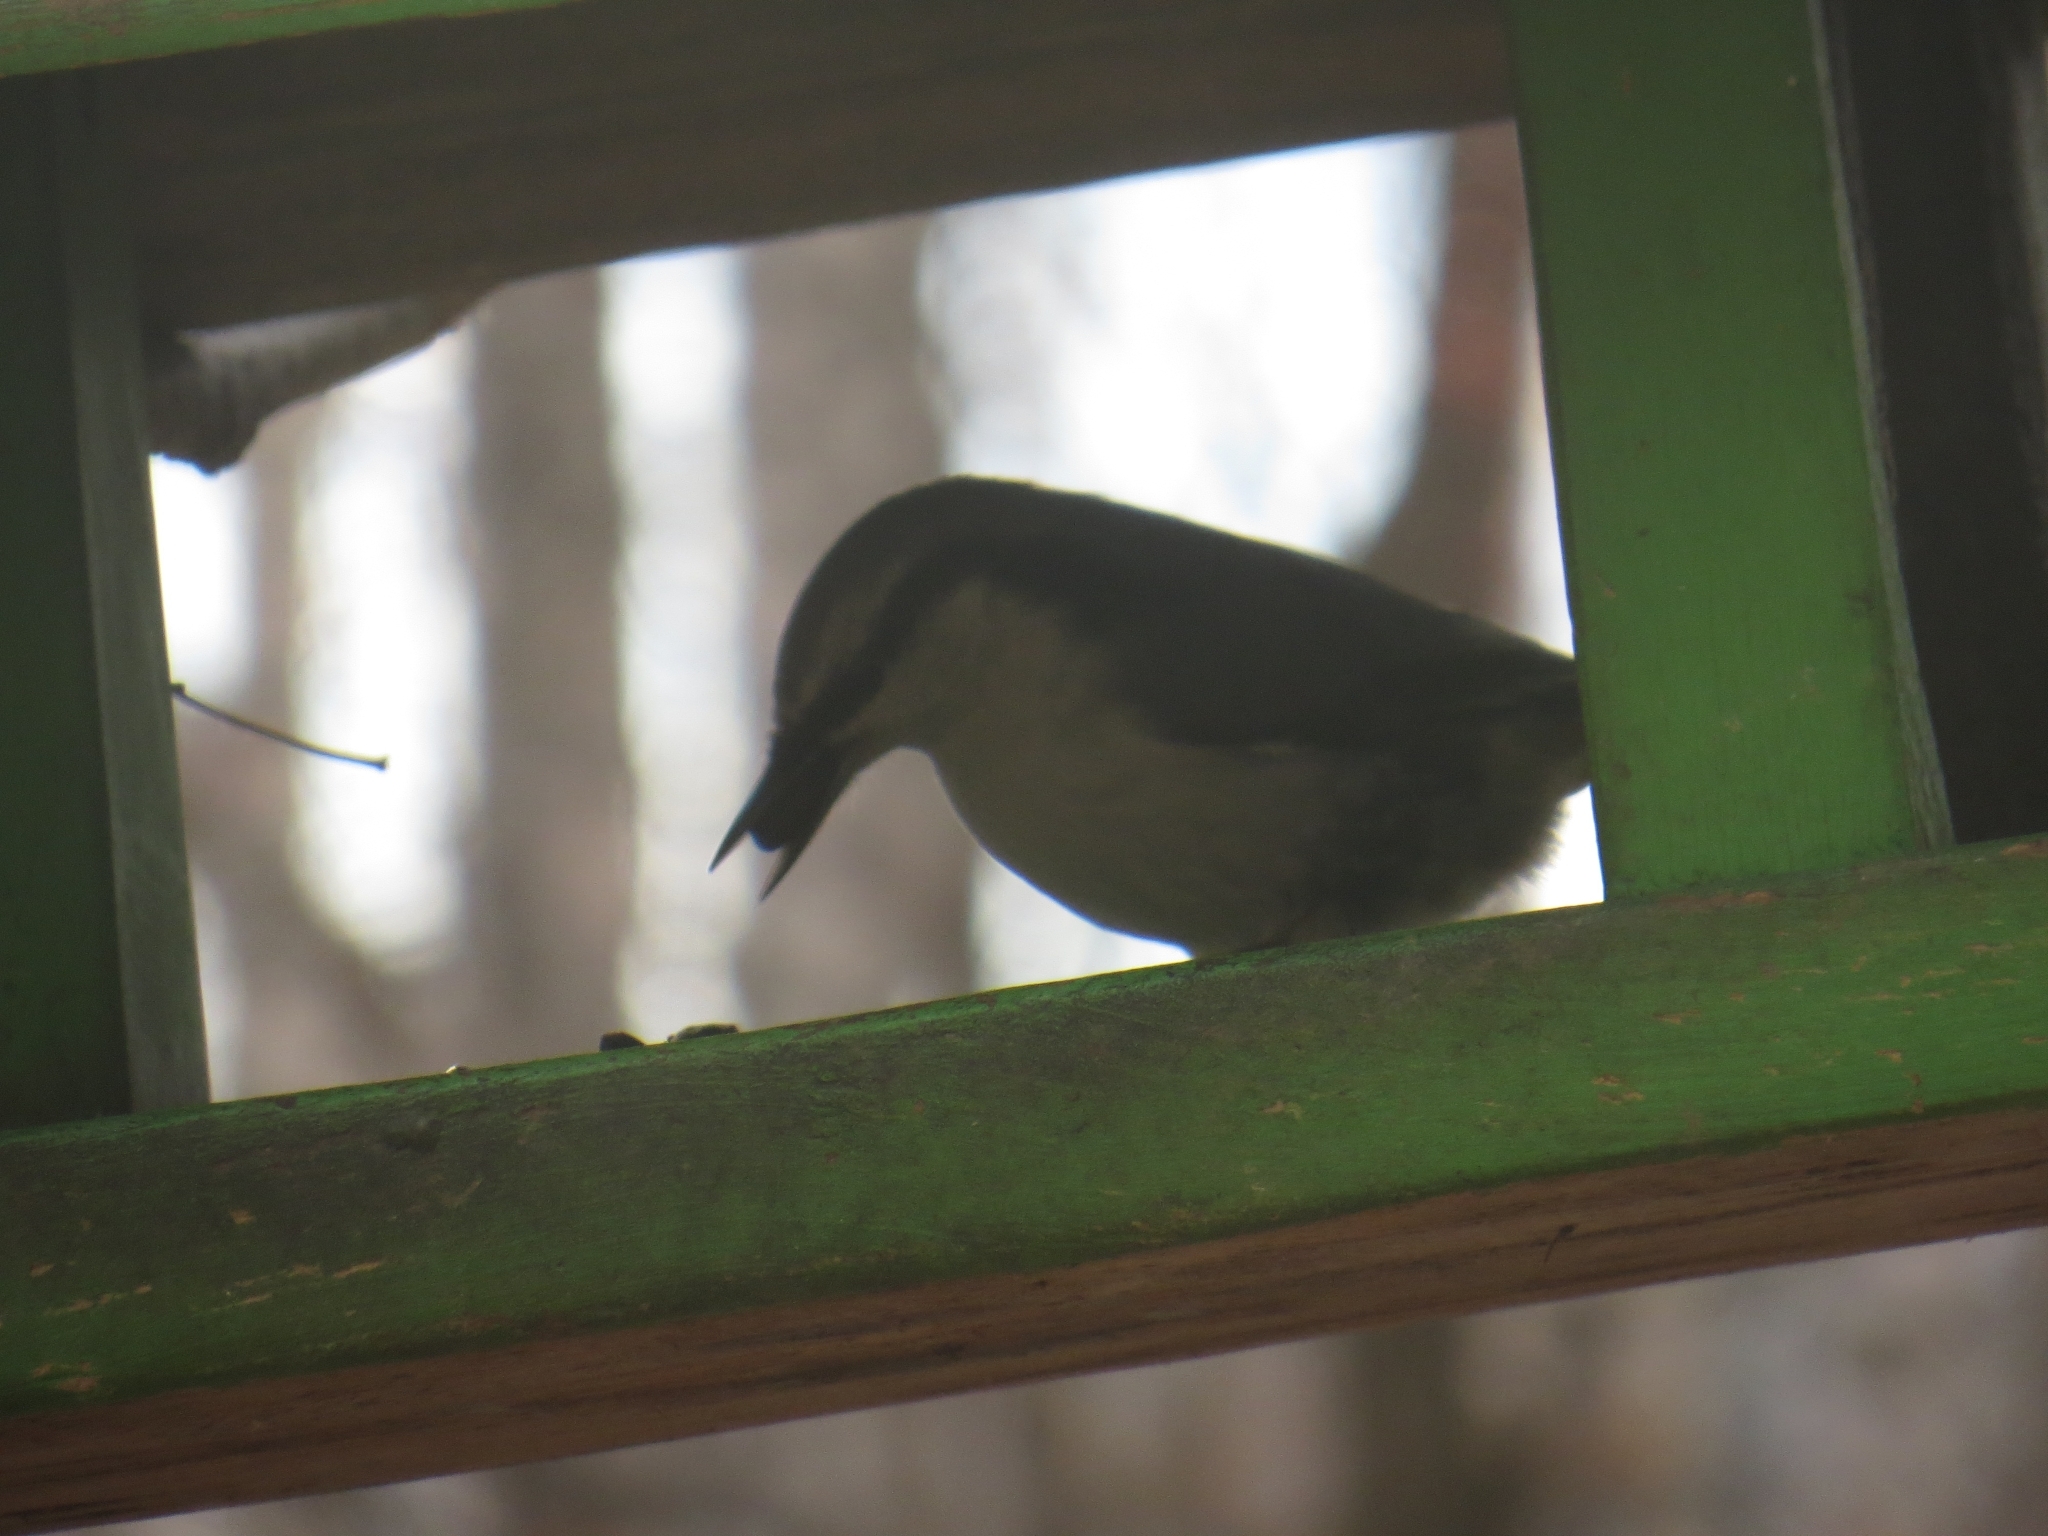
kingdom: Animalia
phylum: Chordata
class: Aves
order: Passeriformes
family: Sittidae
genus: Sitta
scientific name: Sitta europaea
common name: Eurasian nuthatch
